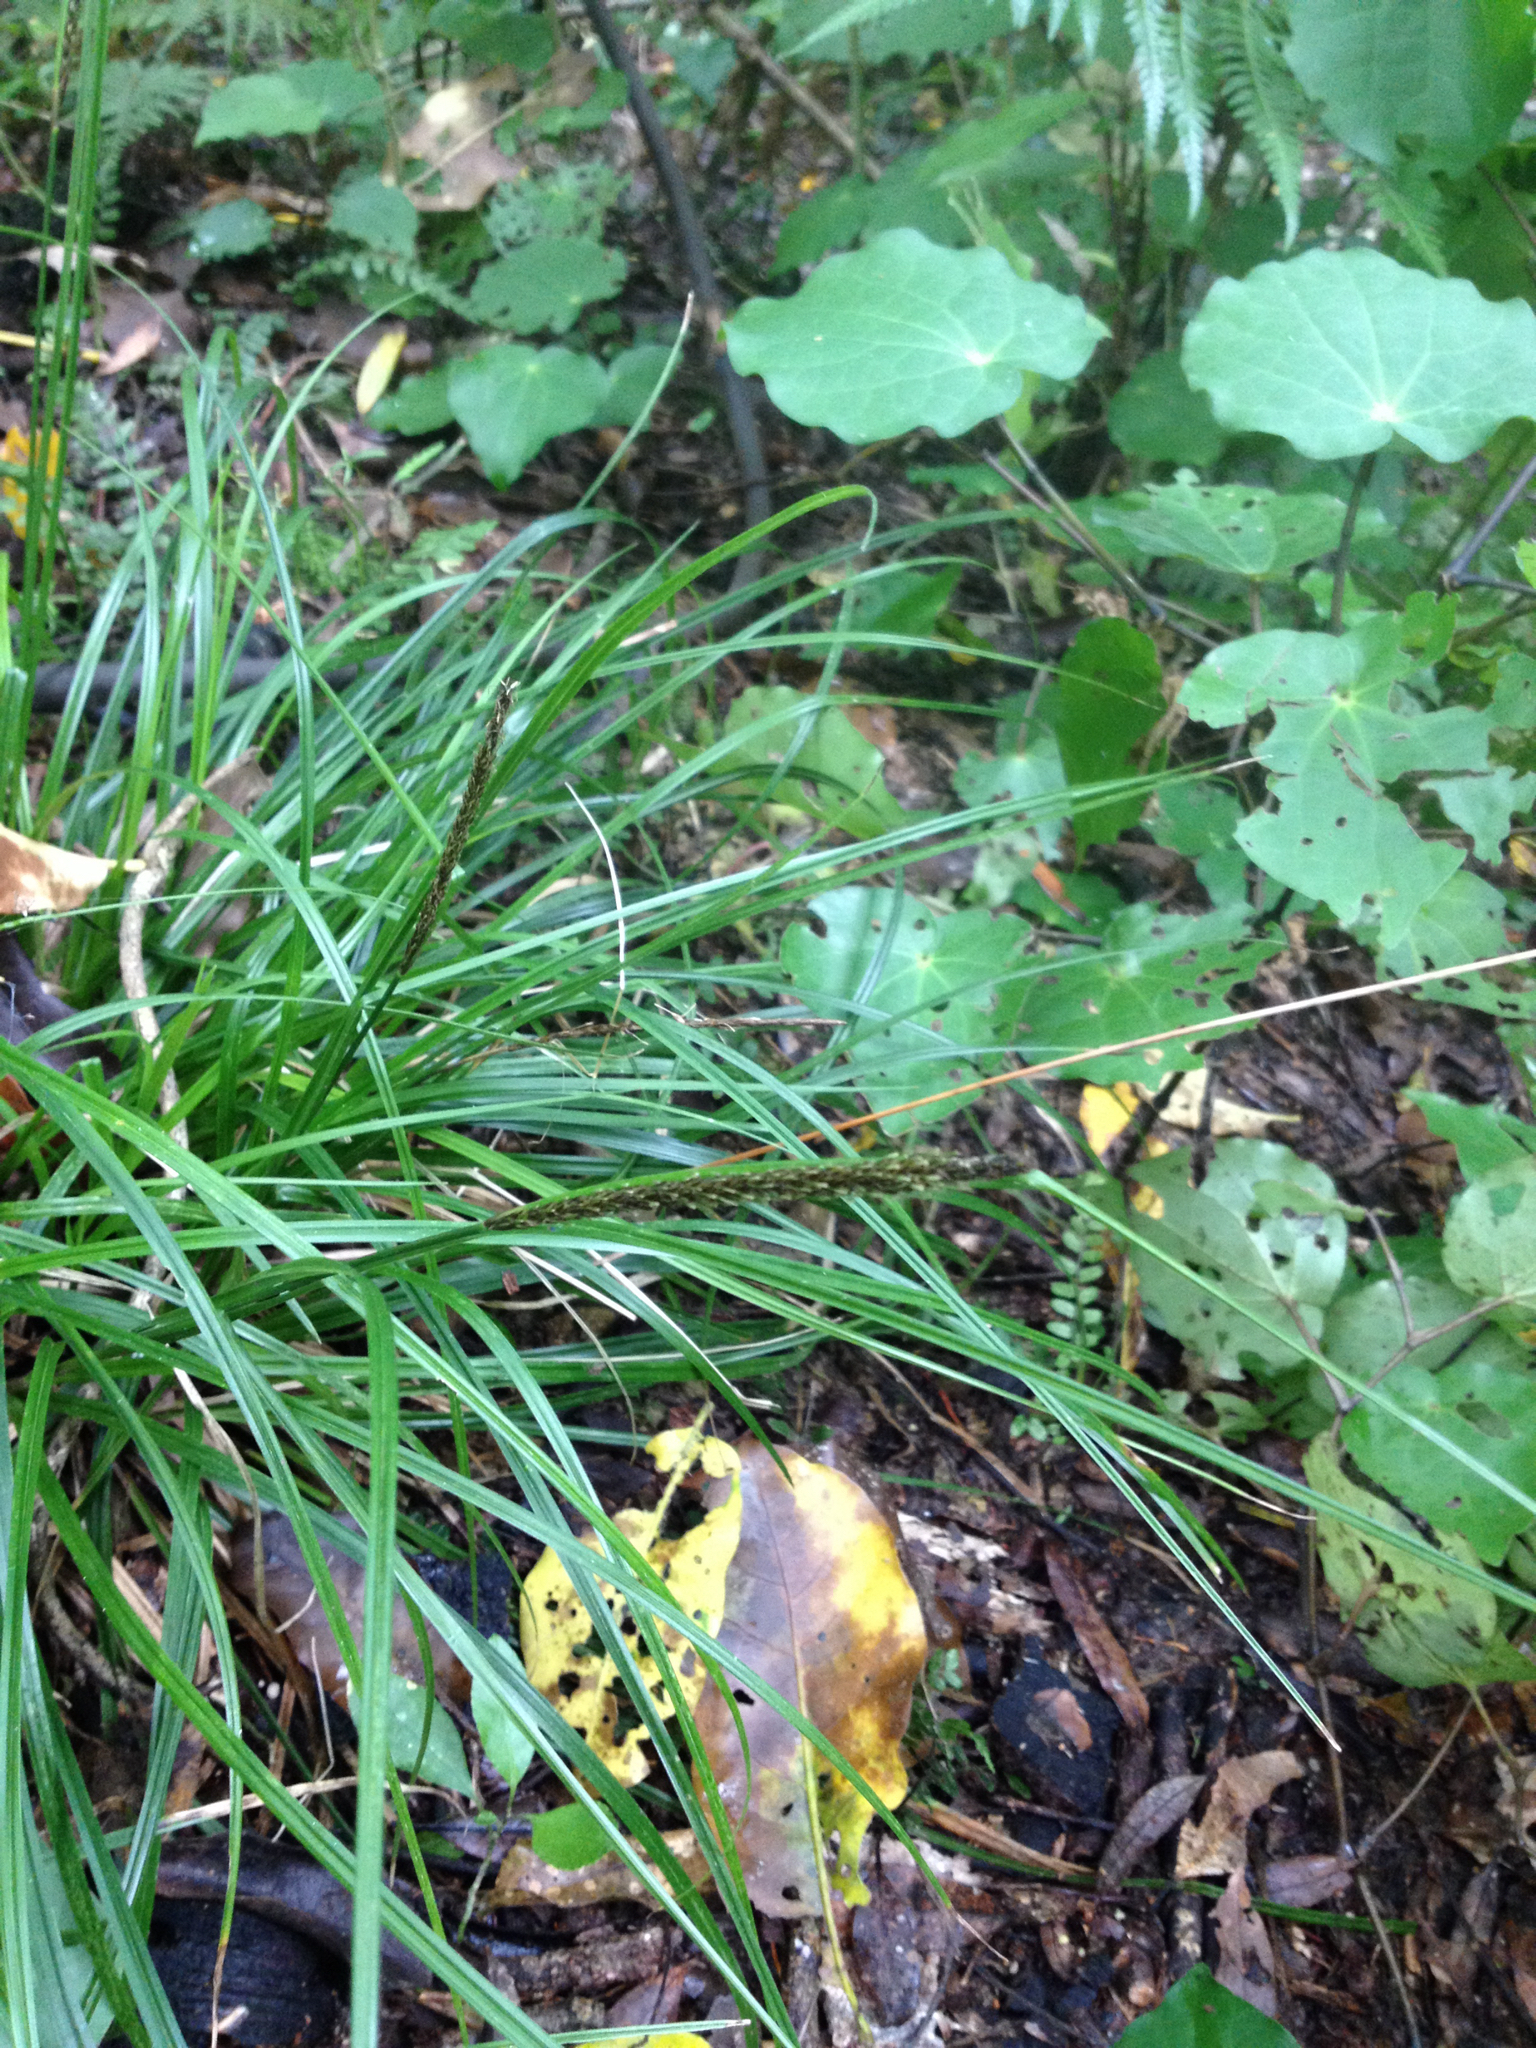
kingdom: Plantae
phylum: Tracheophyta
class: Liliopsida
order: Poales
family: Cyperaceae
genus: Carex
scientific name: Carex uncinata
